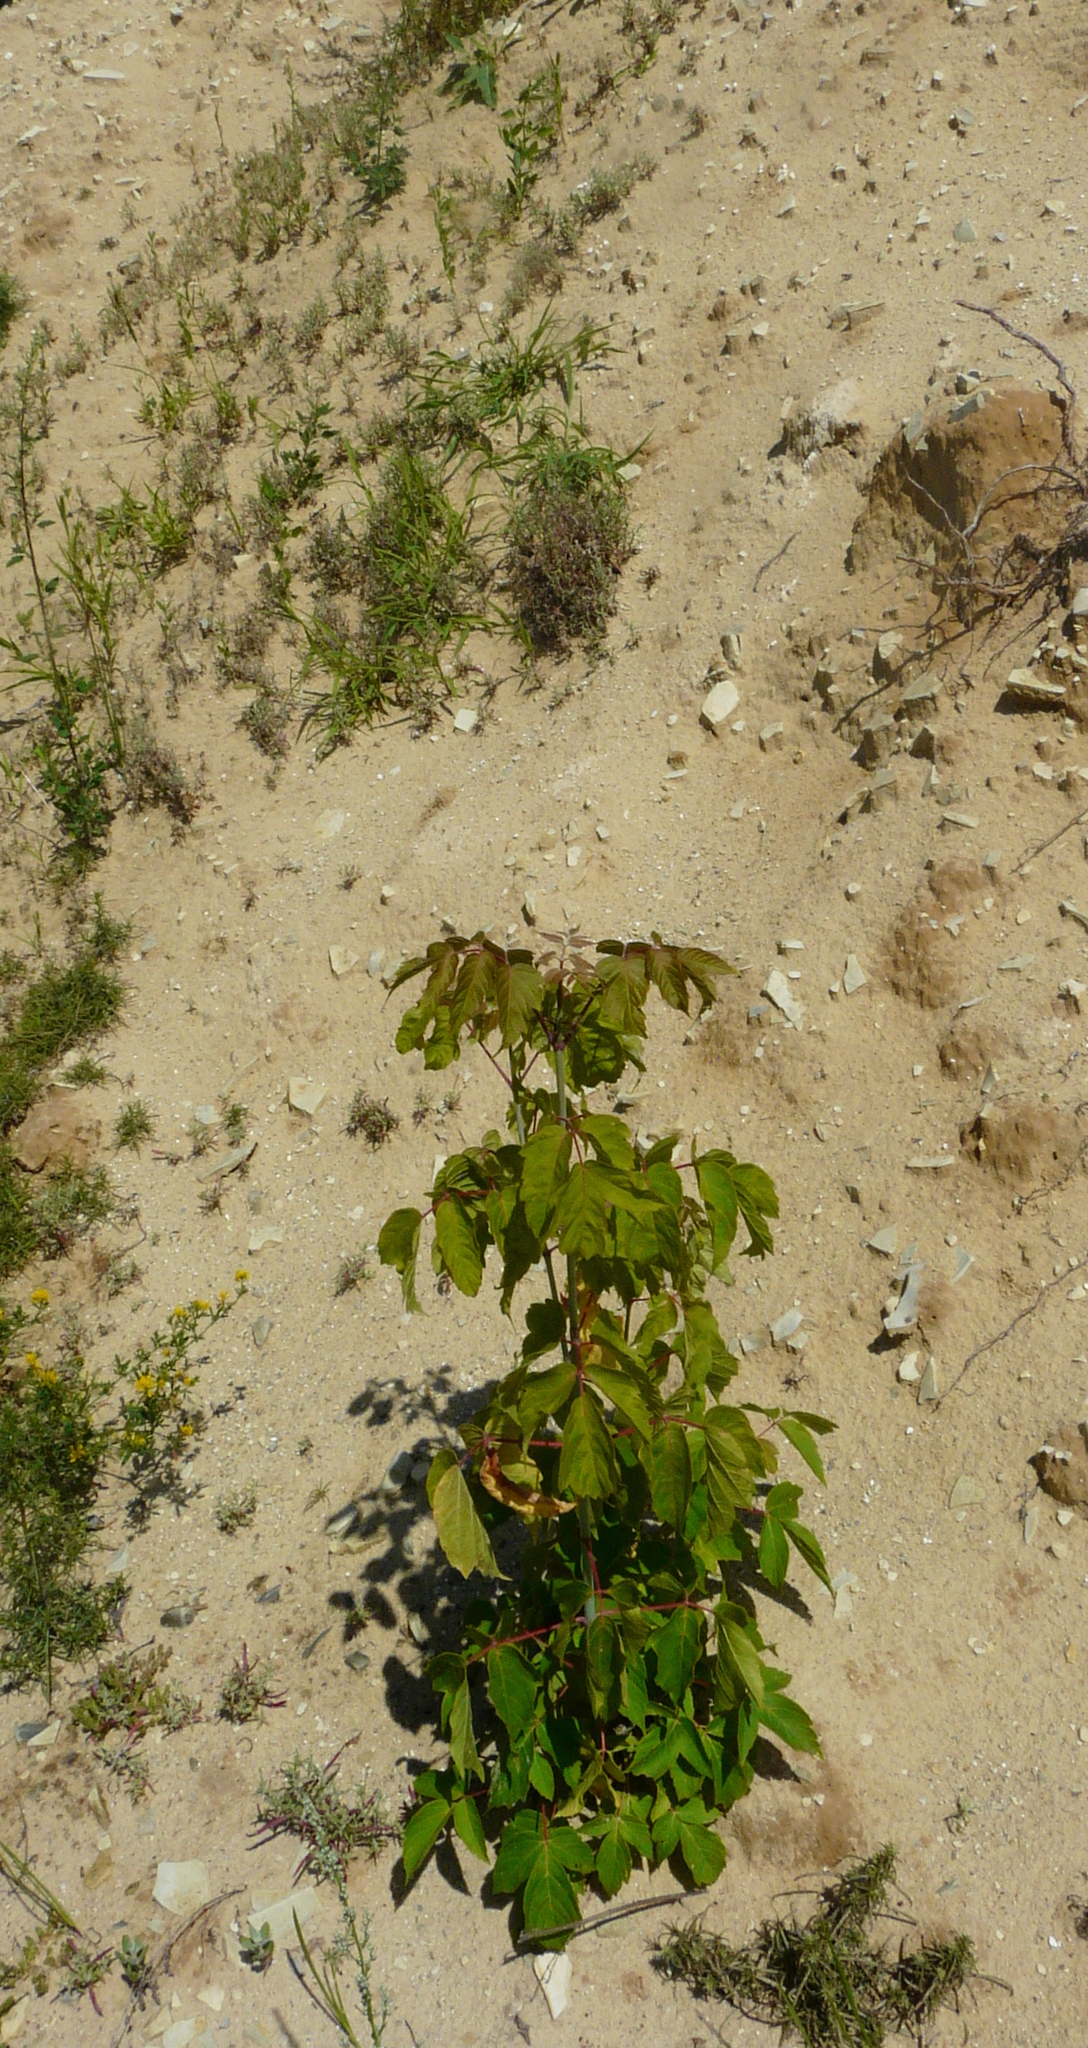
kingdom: Plantae
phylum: Tracheophyta
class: Magnoliopsida
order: Sapindales
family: Sapindaceae
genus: Acer
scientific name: Acer negundo
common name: Ashleaf maple
